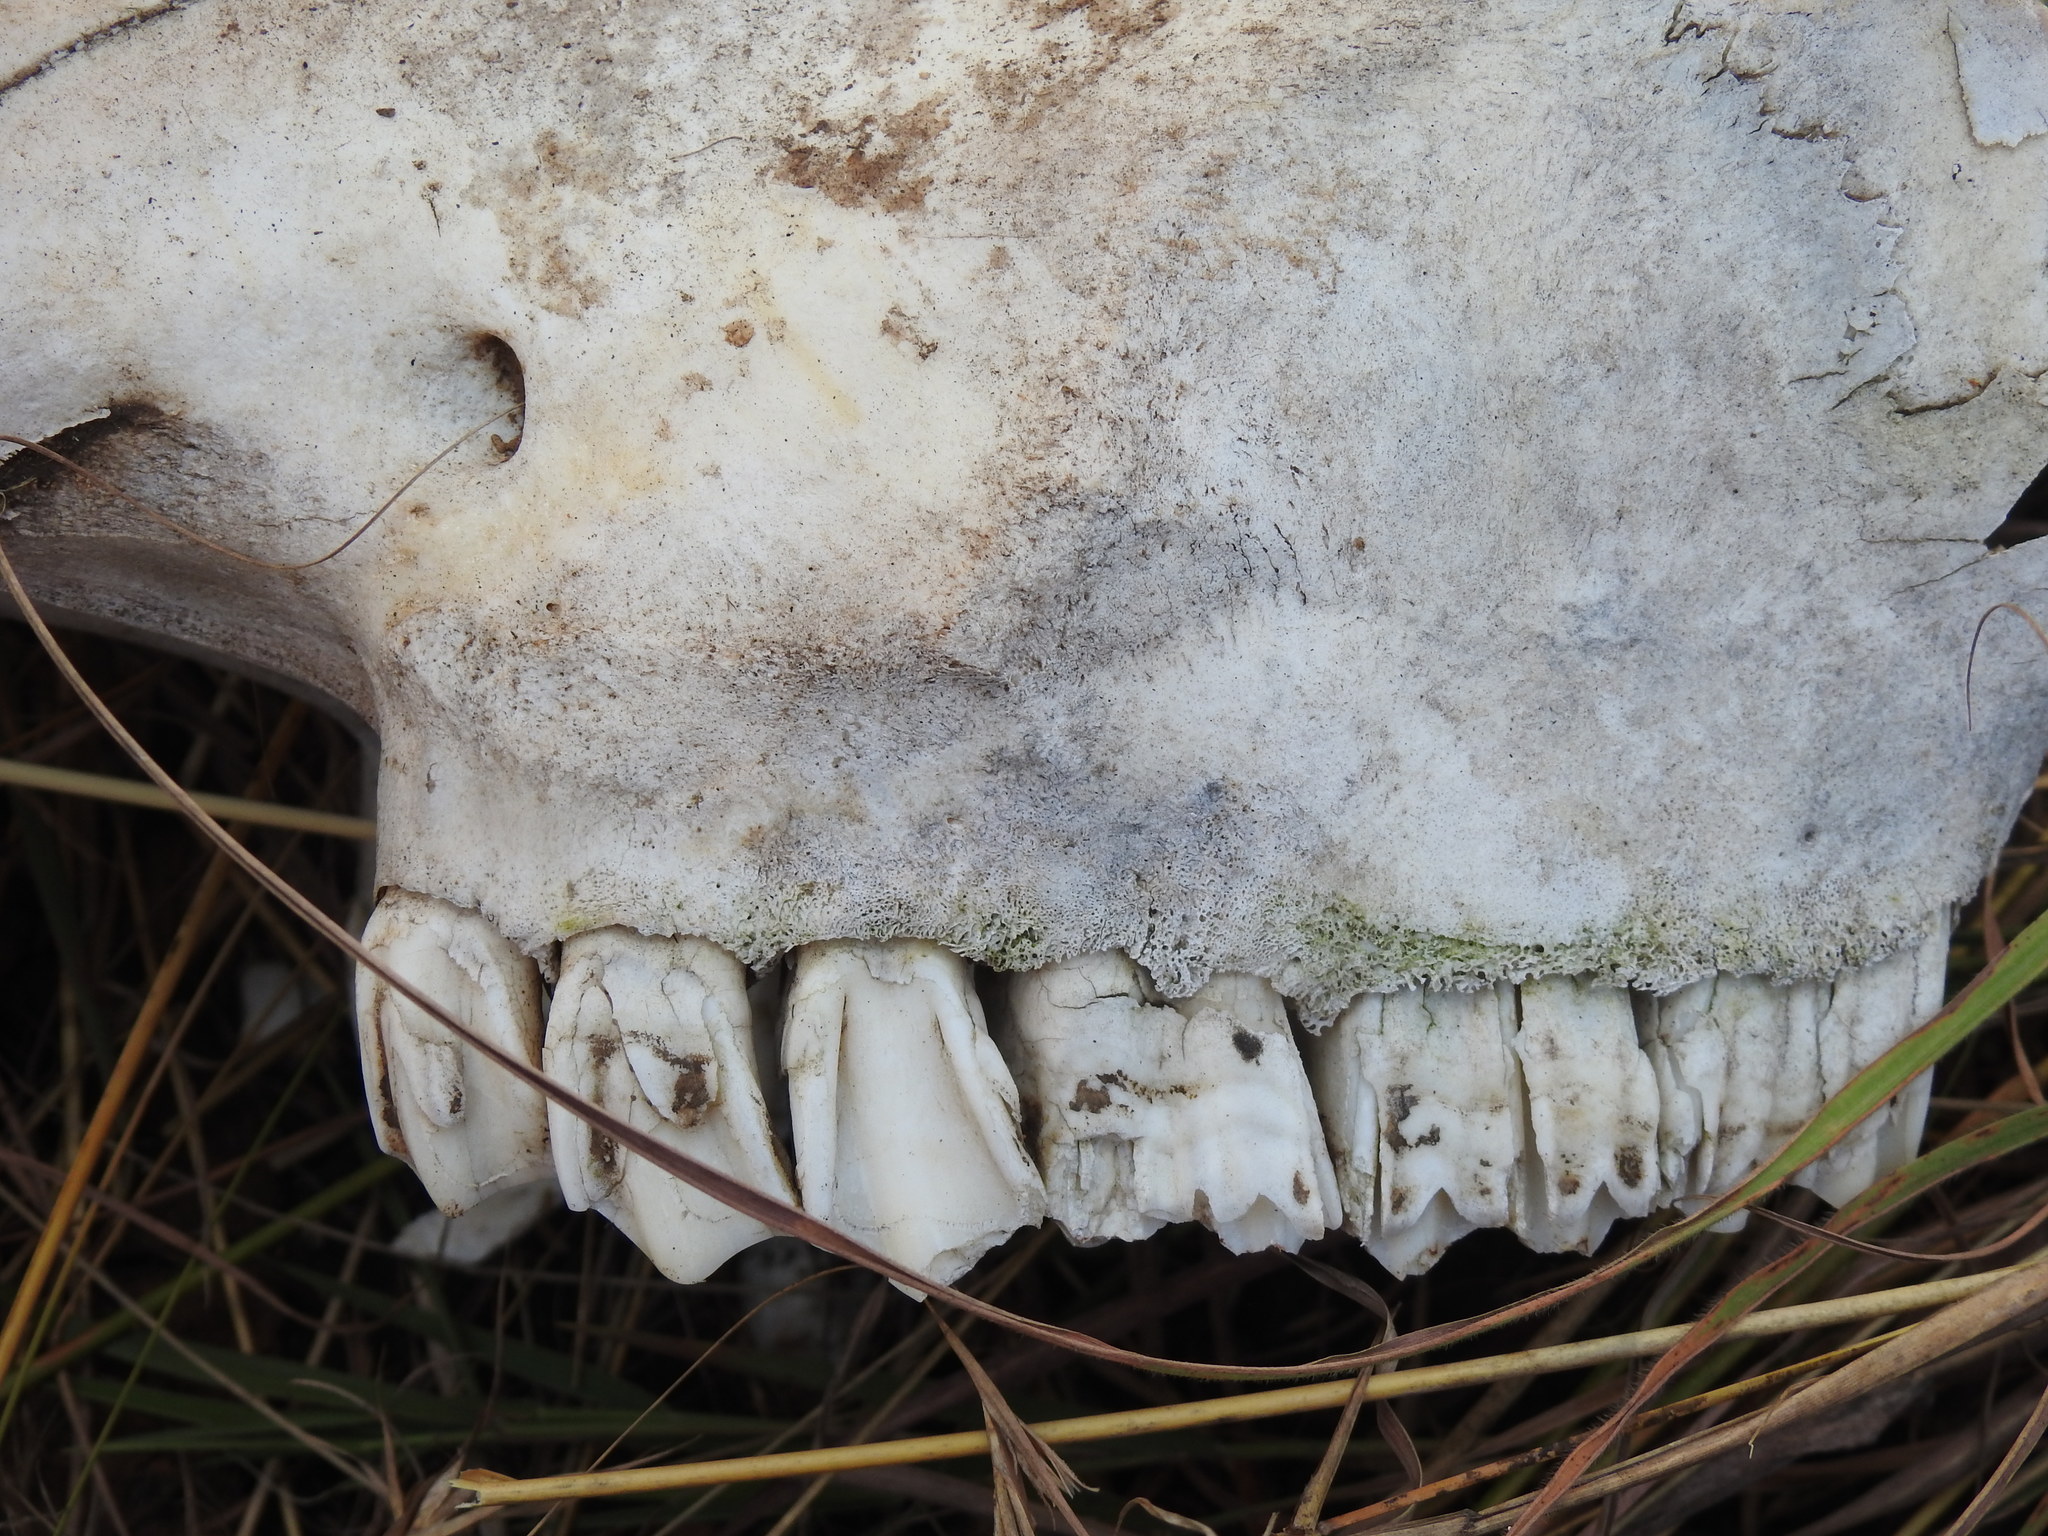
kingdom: Animalia
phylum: Chordata
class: Mammalia
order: Artiodactyla
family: Bovidae
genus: Bos
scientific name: Bos taurus
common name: Domesticated cattle
